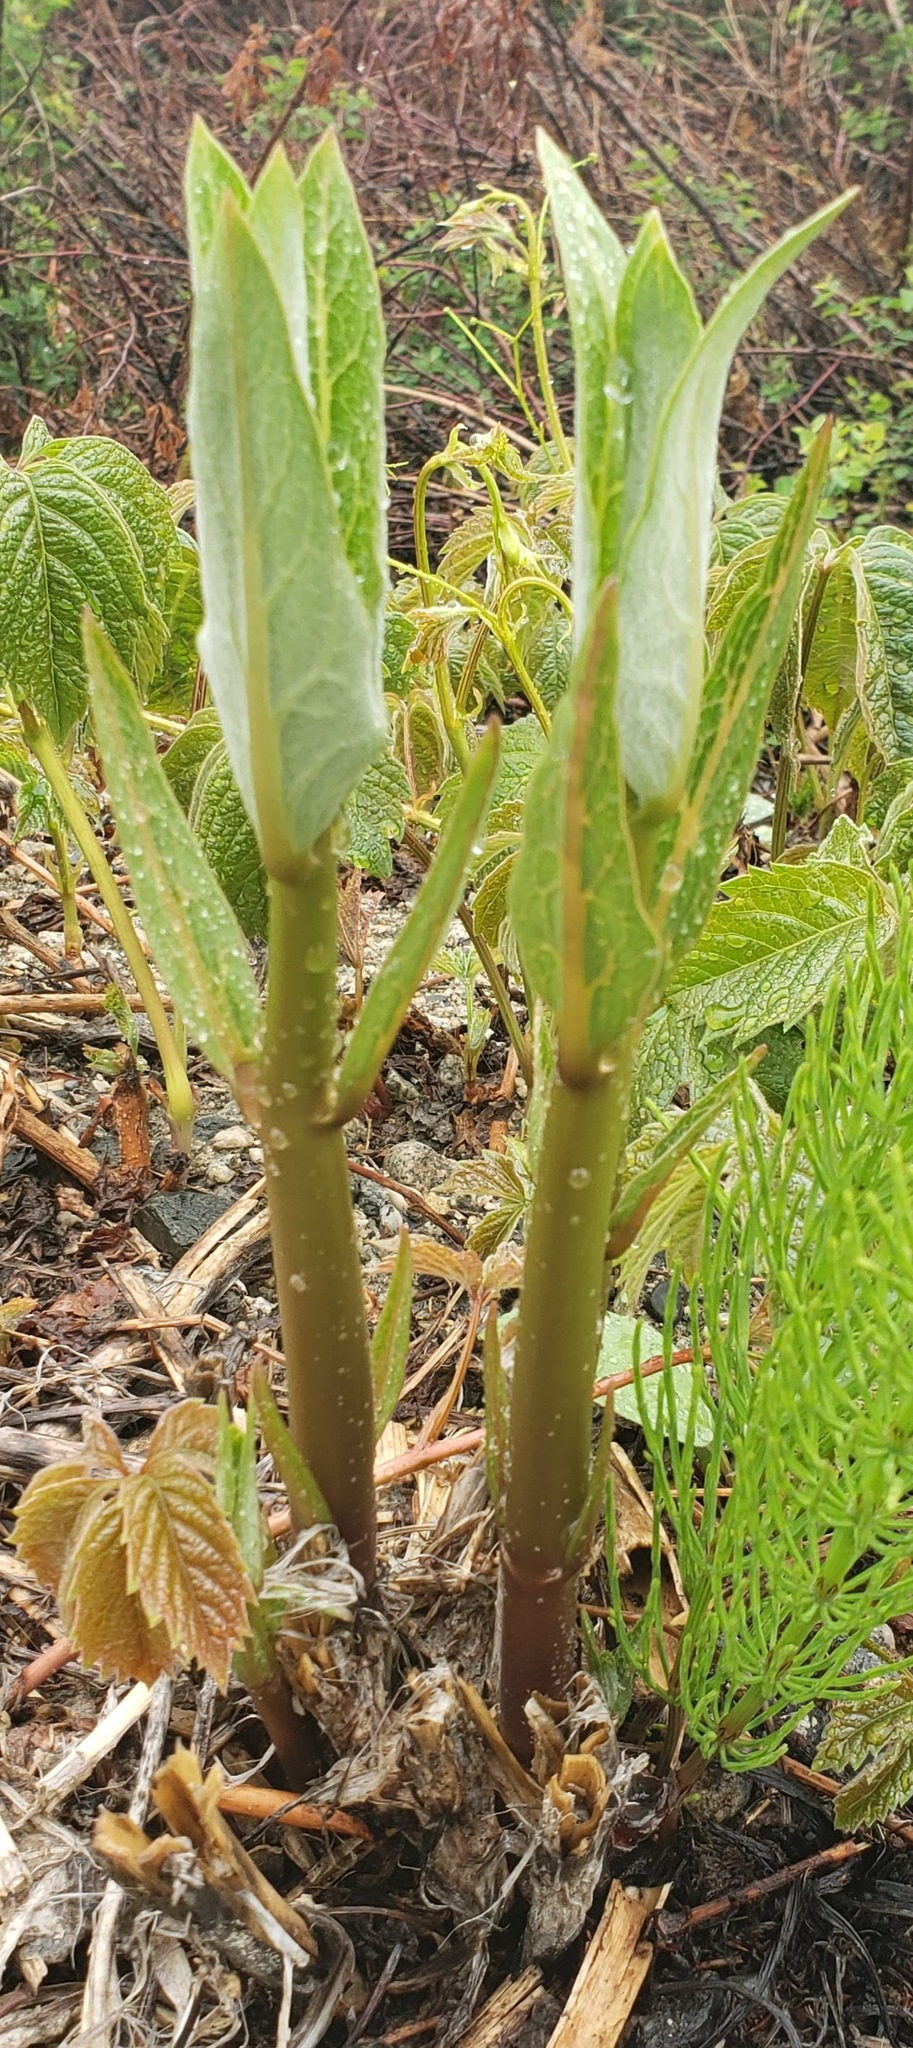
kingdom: Plantae
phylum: Tracheophyta
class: Magnoliopsida
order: Gentianales
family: Apocynaceae
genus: Asclepias
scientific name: Asclepias speciosa
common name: Showy milkweed
